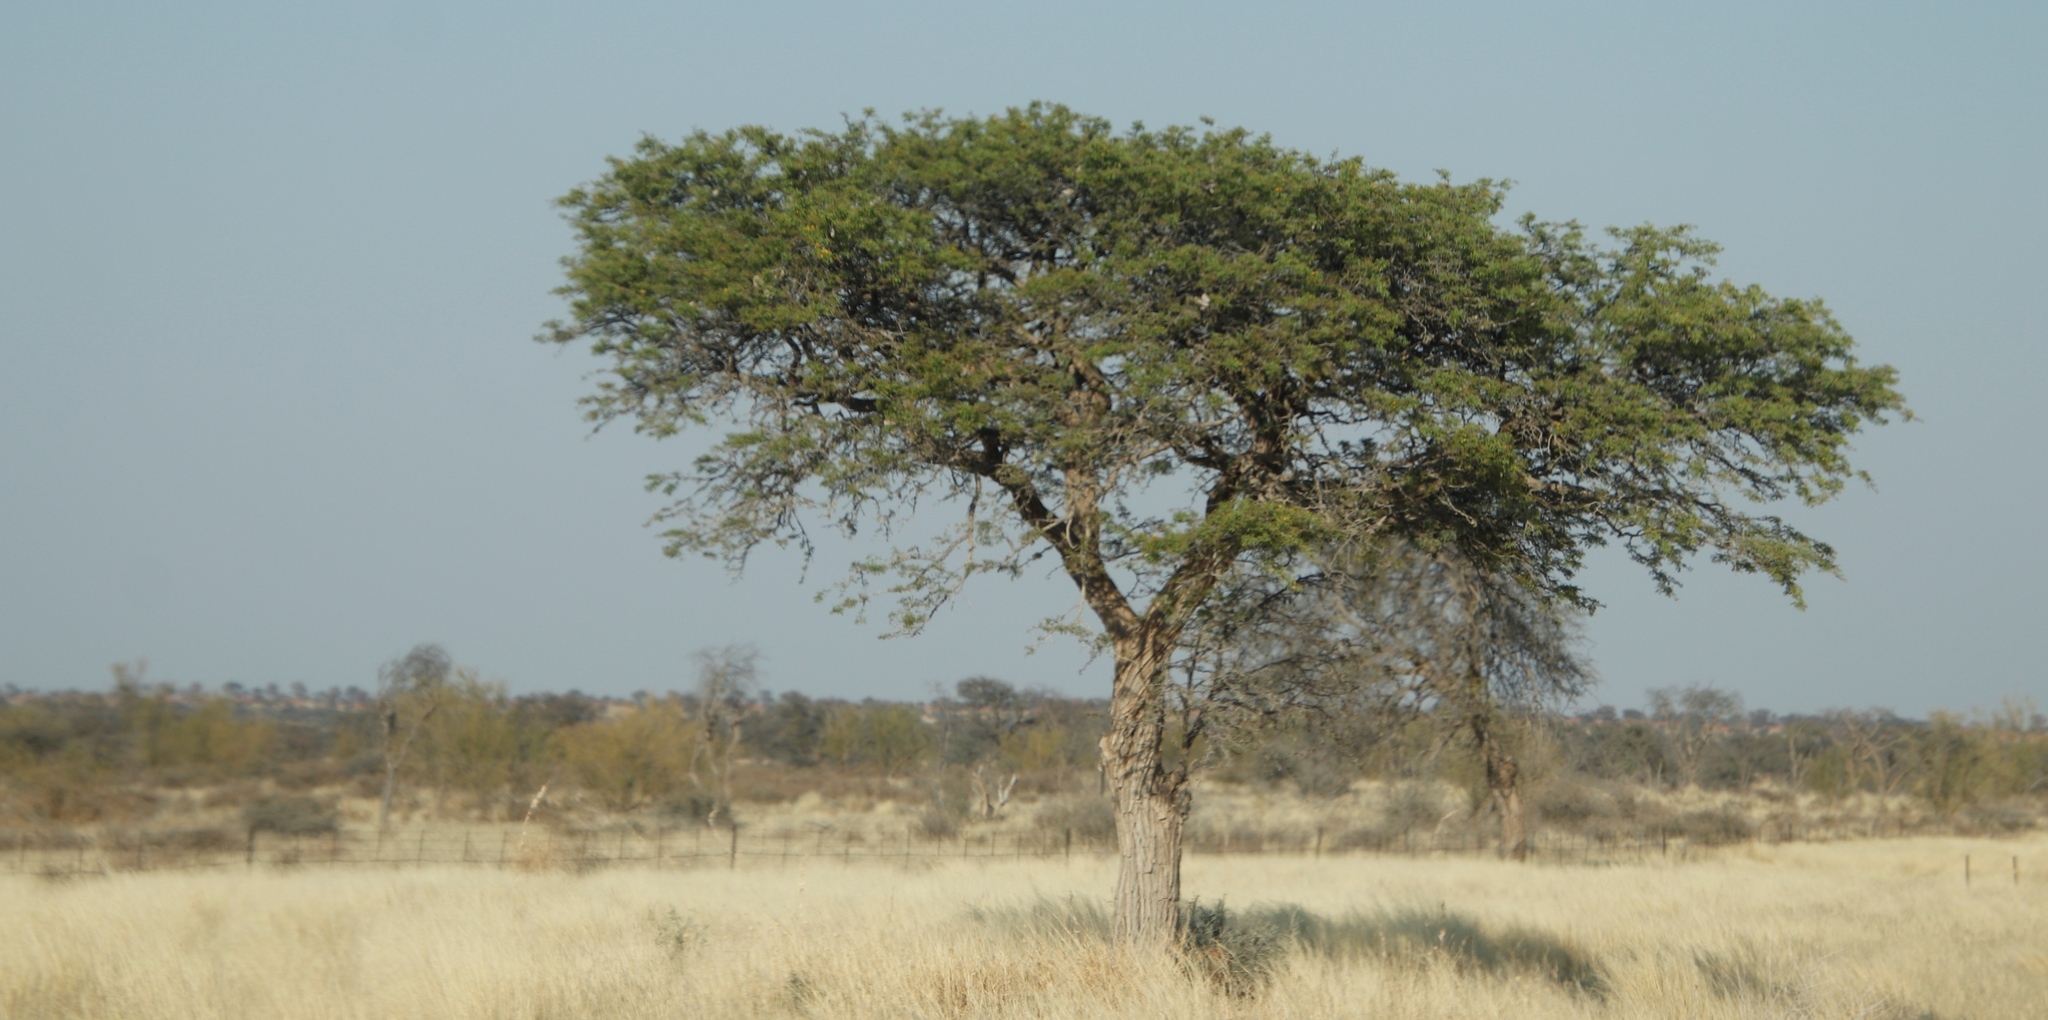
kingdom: Plantae
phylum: Tracheophyta
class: Magnoliopsida
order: Fabales
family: Fabaceae
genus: Vachellia
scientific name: Vachellia erioloba
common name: Camel thorn
